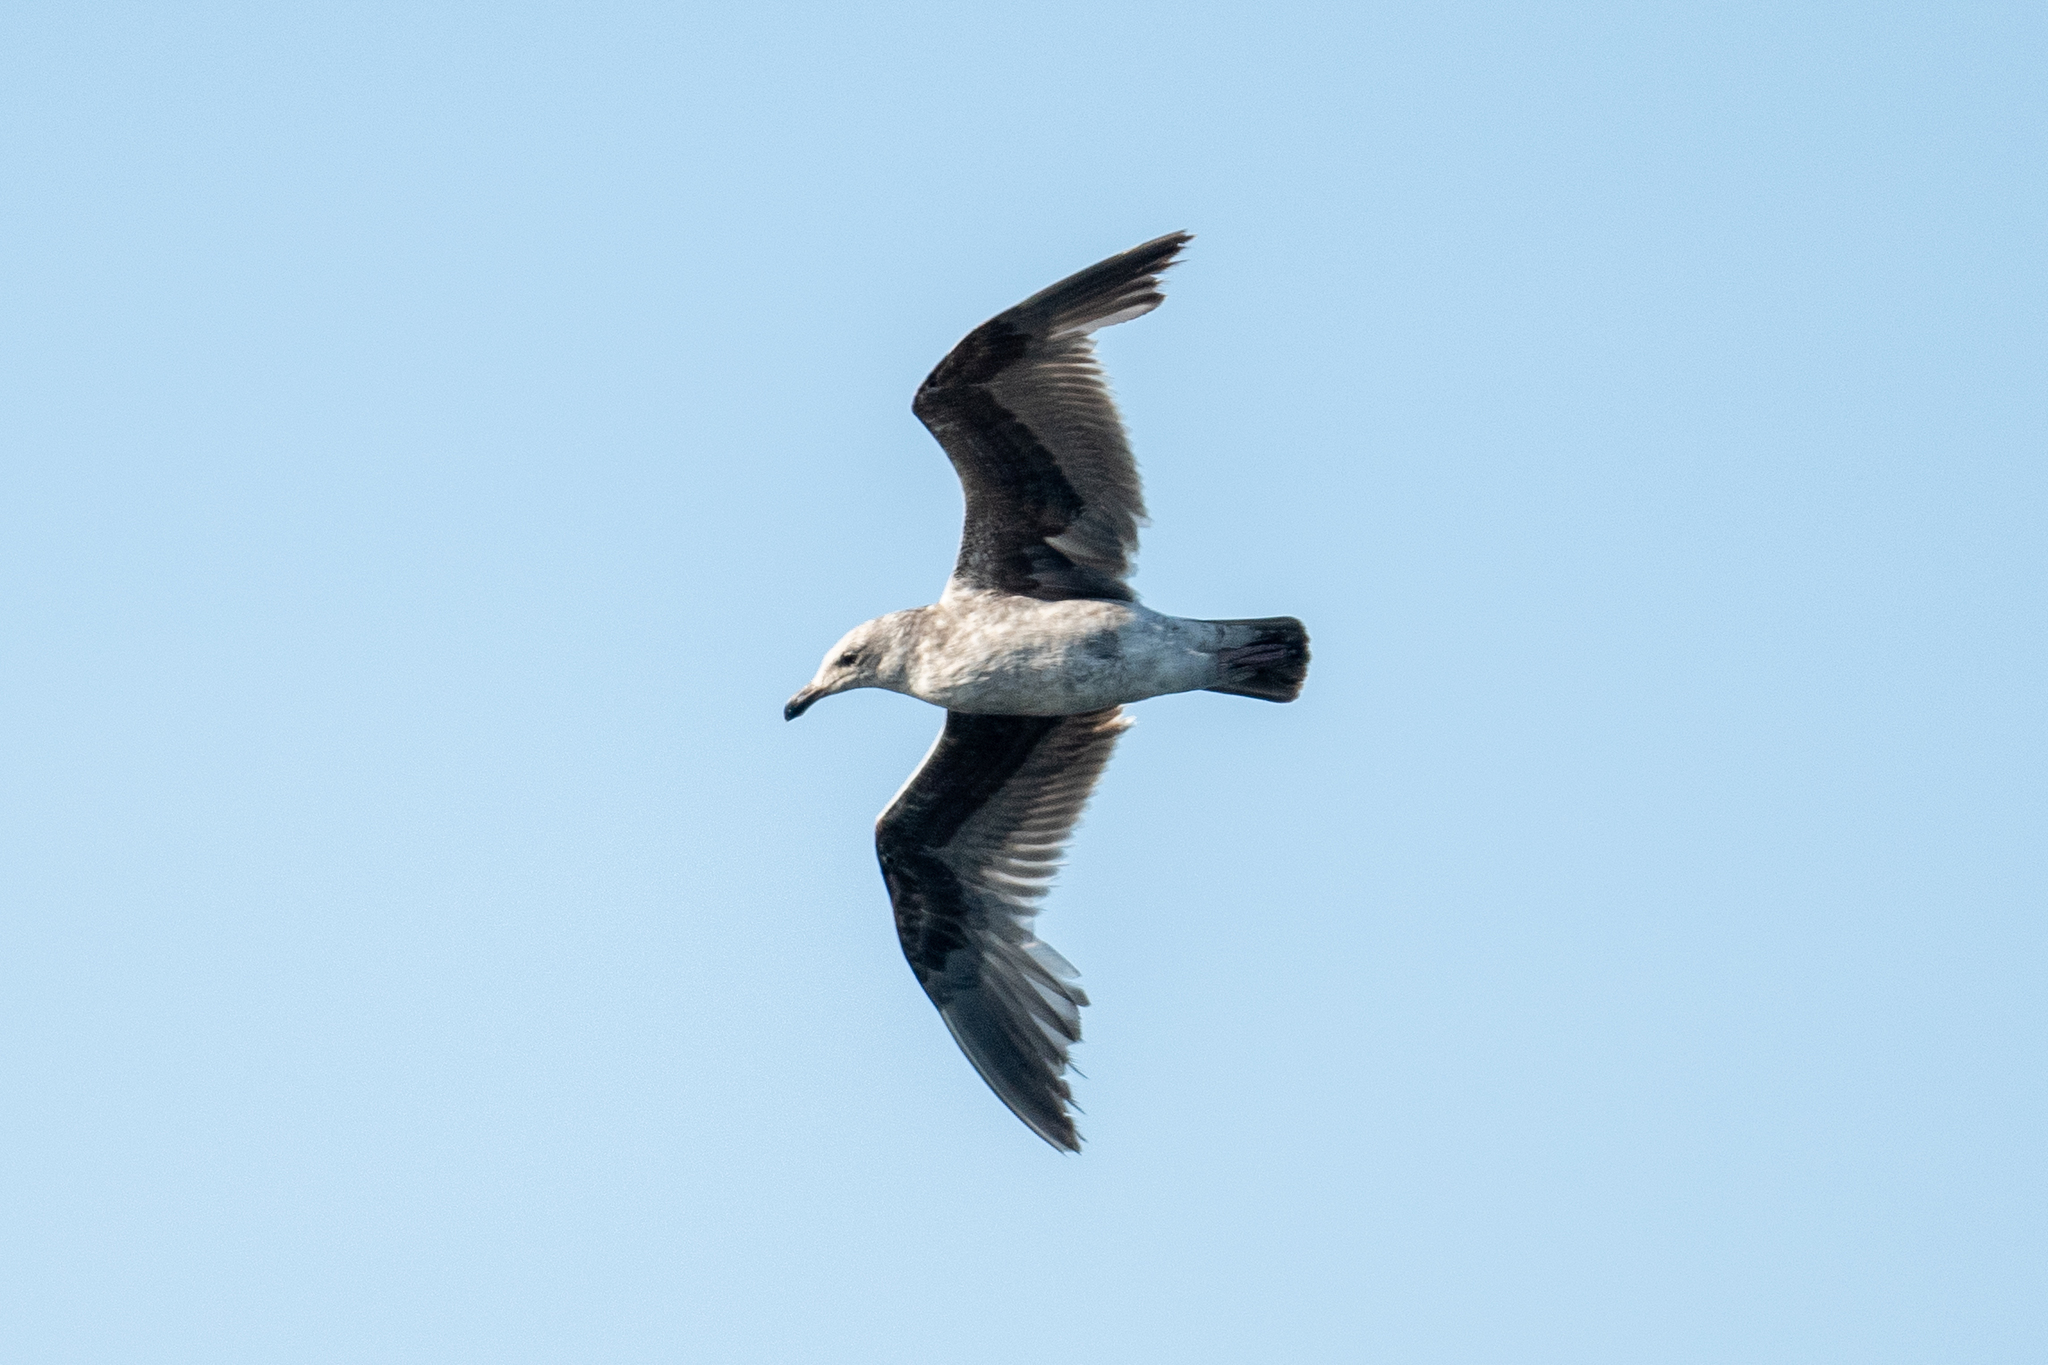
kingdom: Animalia
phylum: Chordata
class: Aves
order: Charadriiformes
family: Laridae
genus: Larus
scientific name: Larus occidentalis
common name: Western gull
